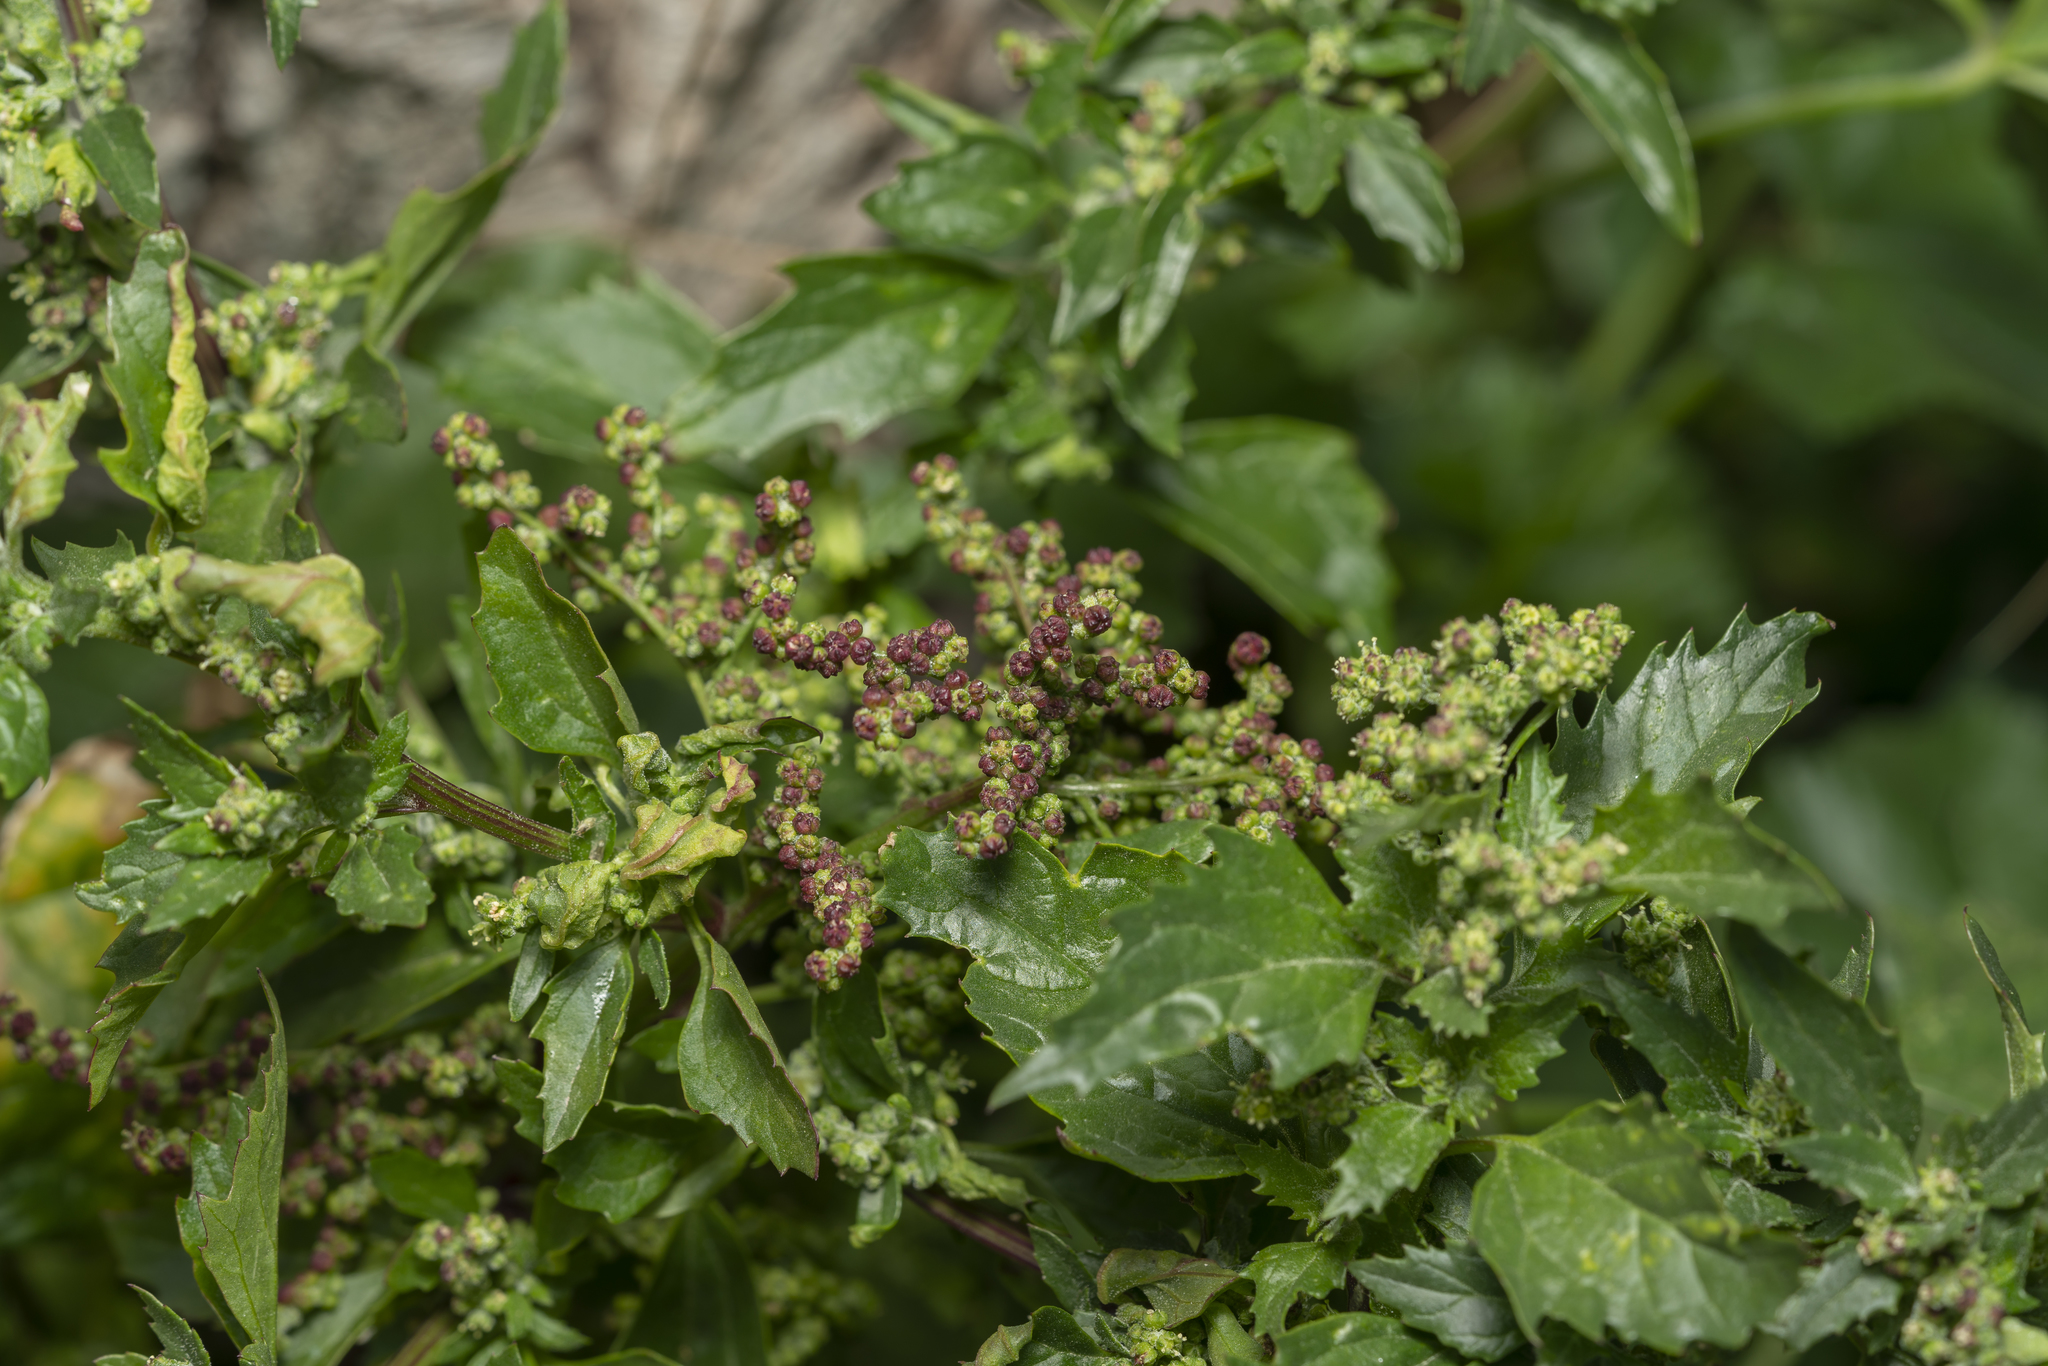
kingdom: Plantae
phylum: Tracheophyta
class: Magnoliopsida
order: Caryophyllales
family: Amaranthaceae
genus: Chenopodiastrum
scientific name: Chenopodiastrum murale
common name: Sowbane
